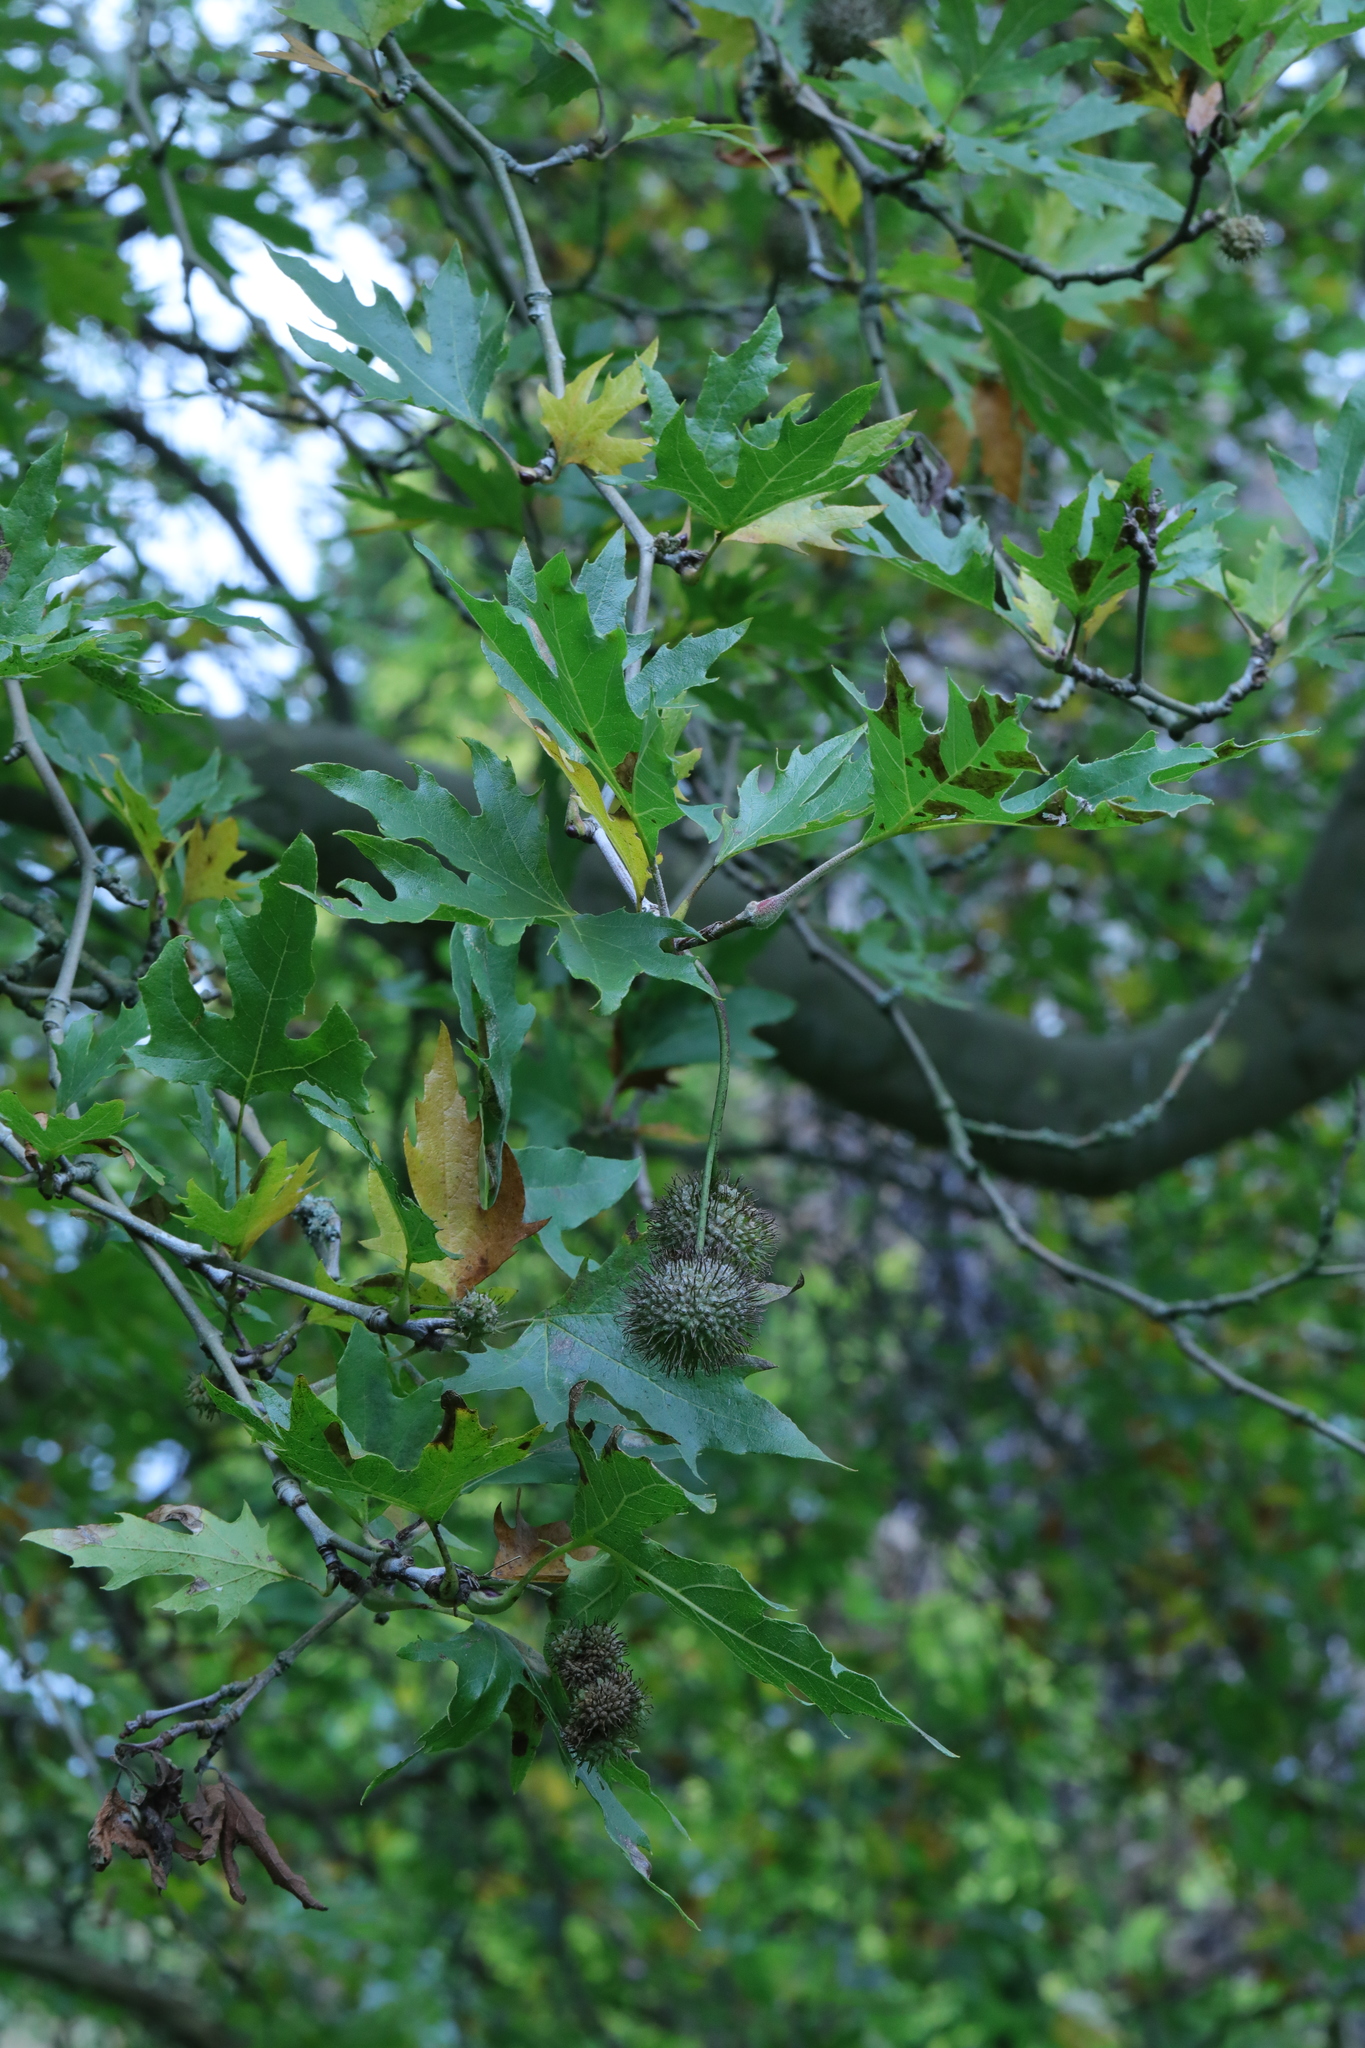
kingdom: Plantae
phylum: Tracheophyta
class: Magnoliopsida
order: Proteales
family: Platanaceae
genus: Platanus
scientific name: Platanus hispanica
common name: London plane
